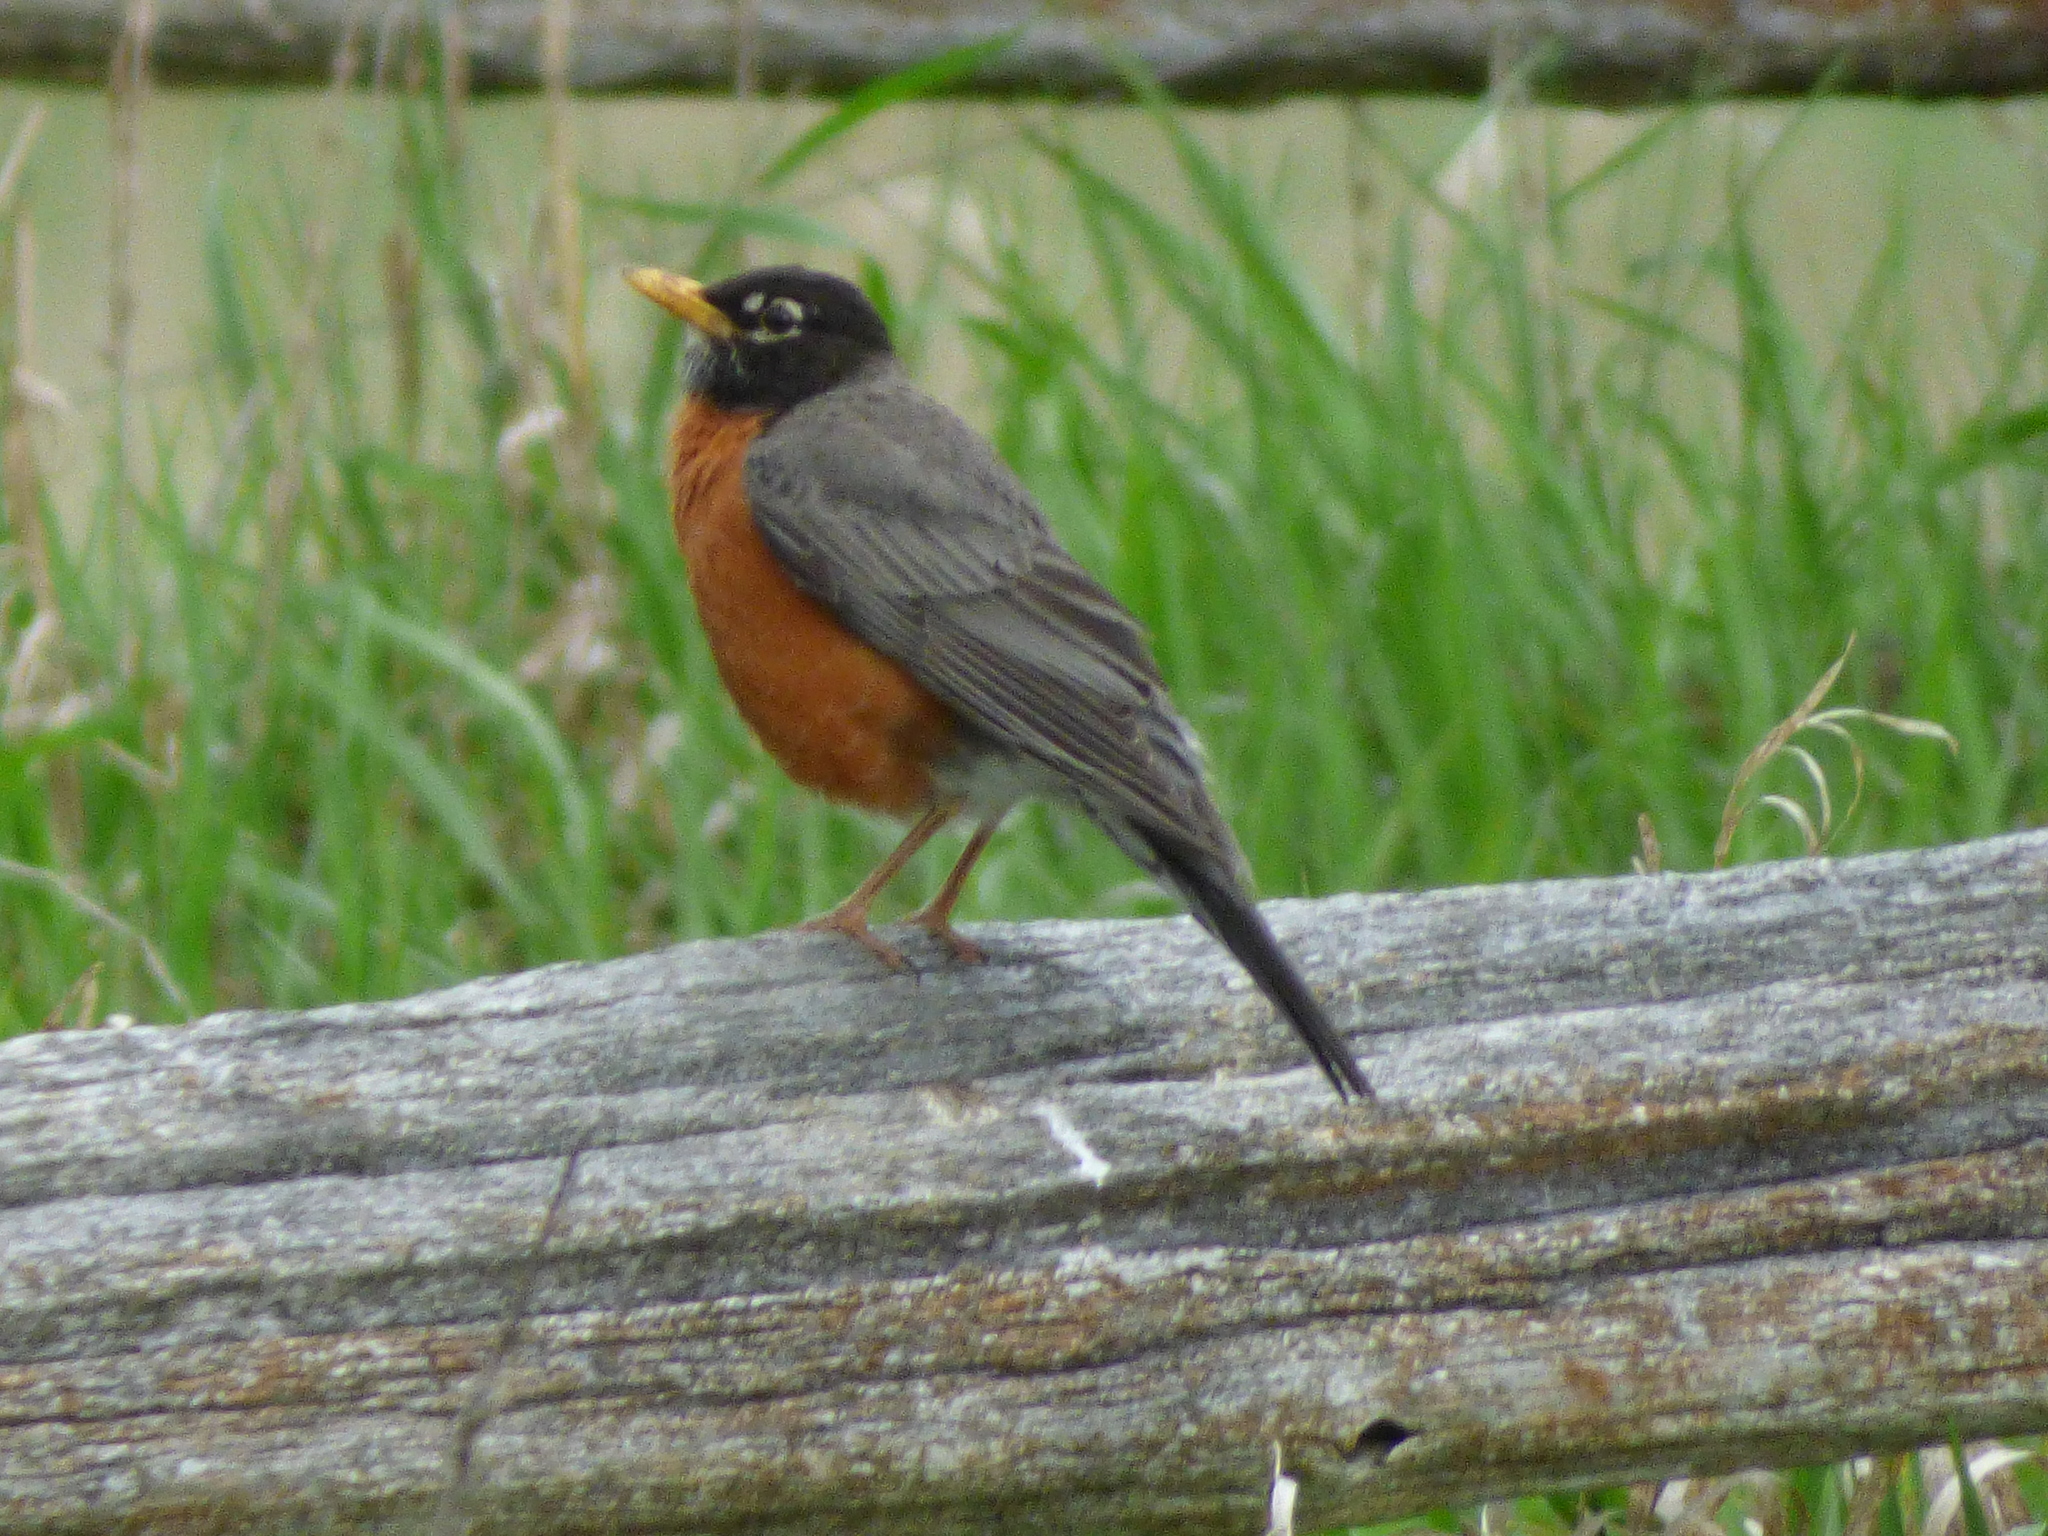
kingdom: Animalia
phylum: Chordata
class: Aves
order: Passeriformes
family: Turdidae
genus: Turdus
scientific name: Turdus migratorius
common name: American robin
